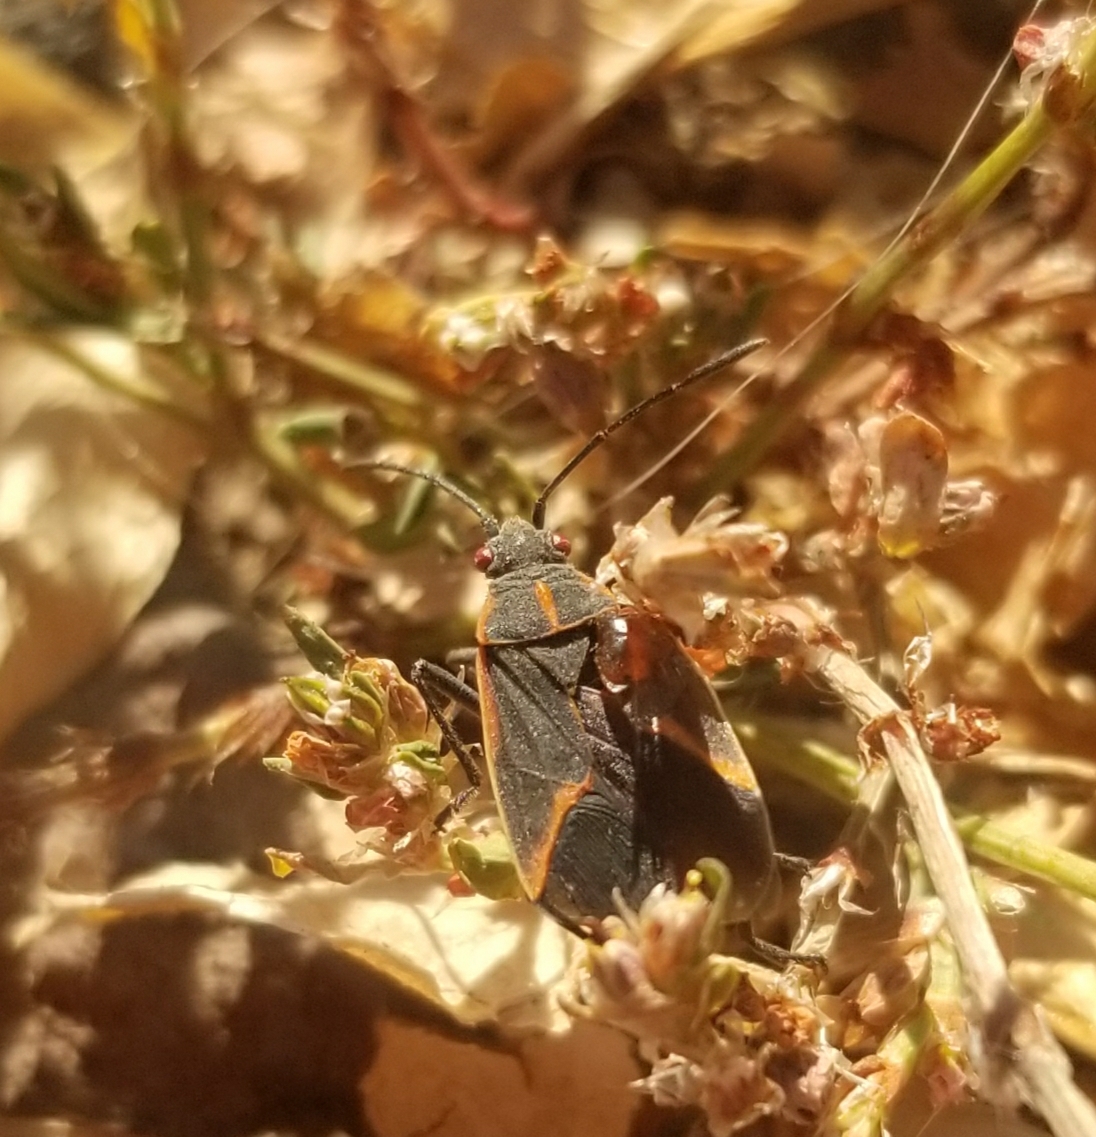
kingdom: Animalia
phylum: Arthropoda
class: Insecta
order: Hemiptera
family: Rhopalidae
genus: Boisea
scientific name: Boisea trivittata
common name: Boxelder bug
